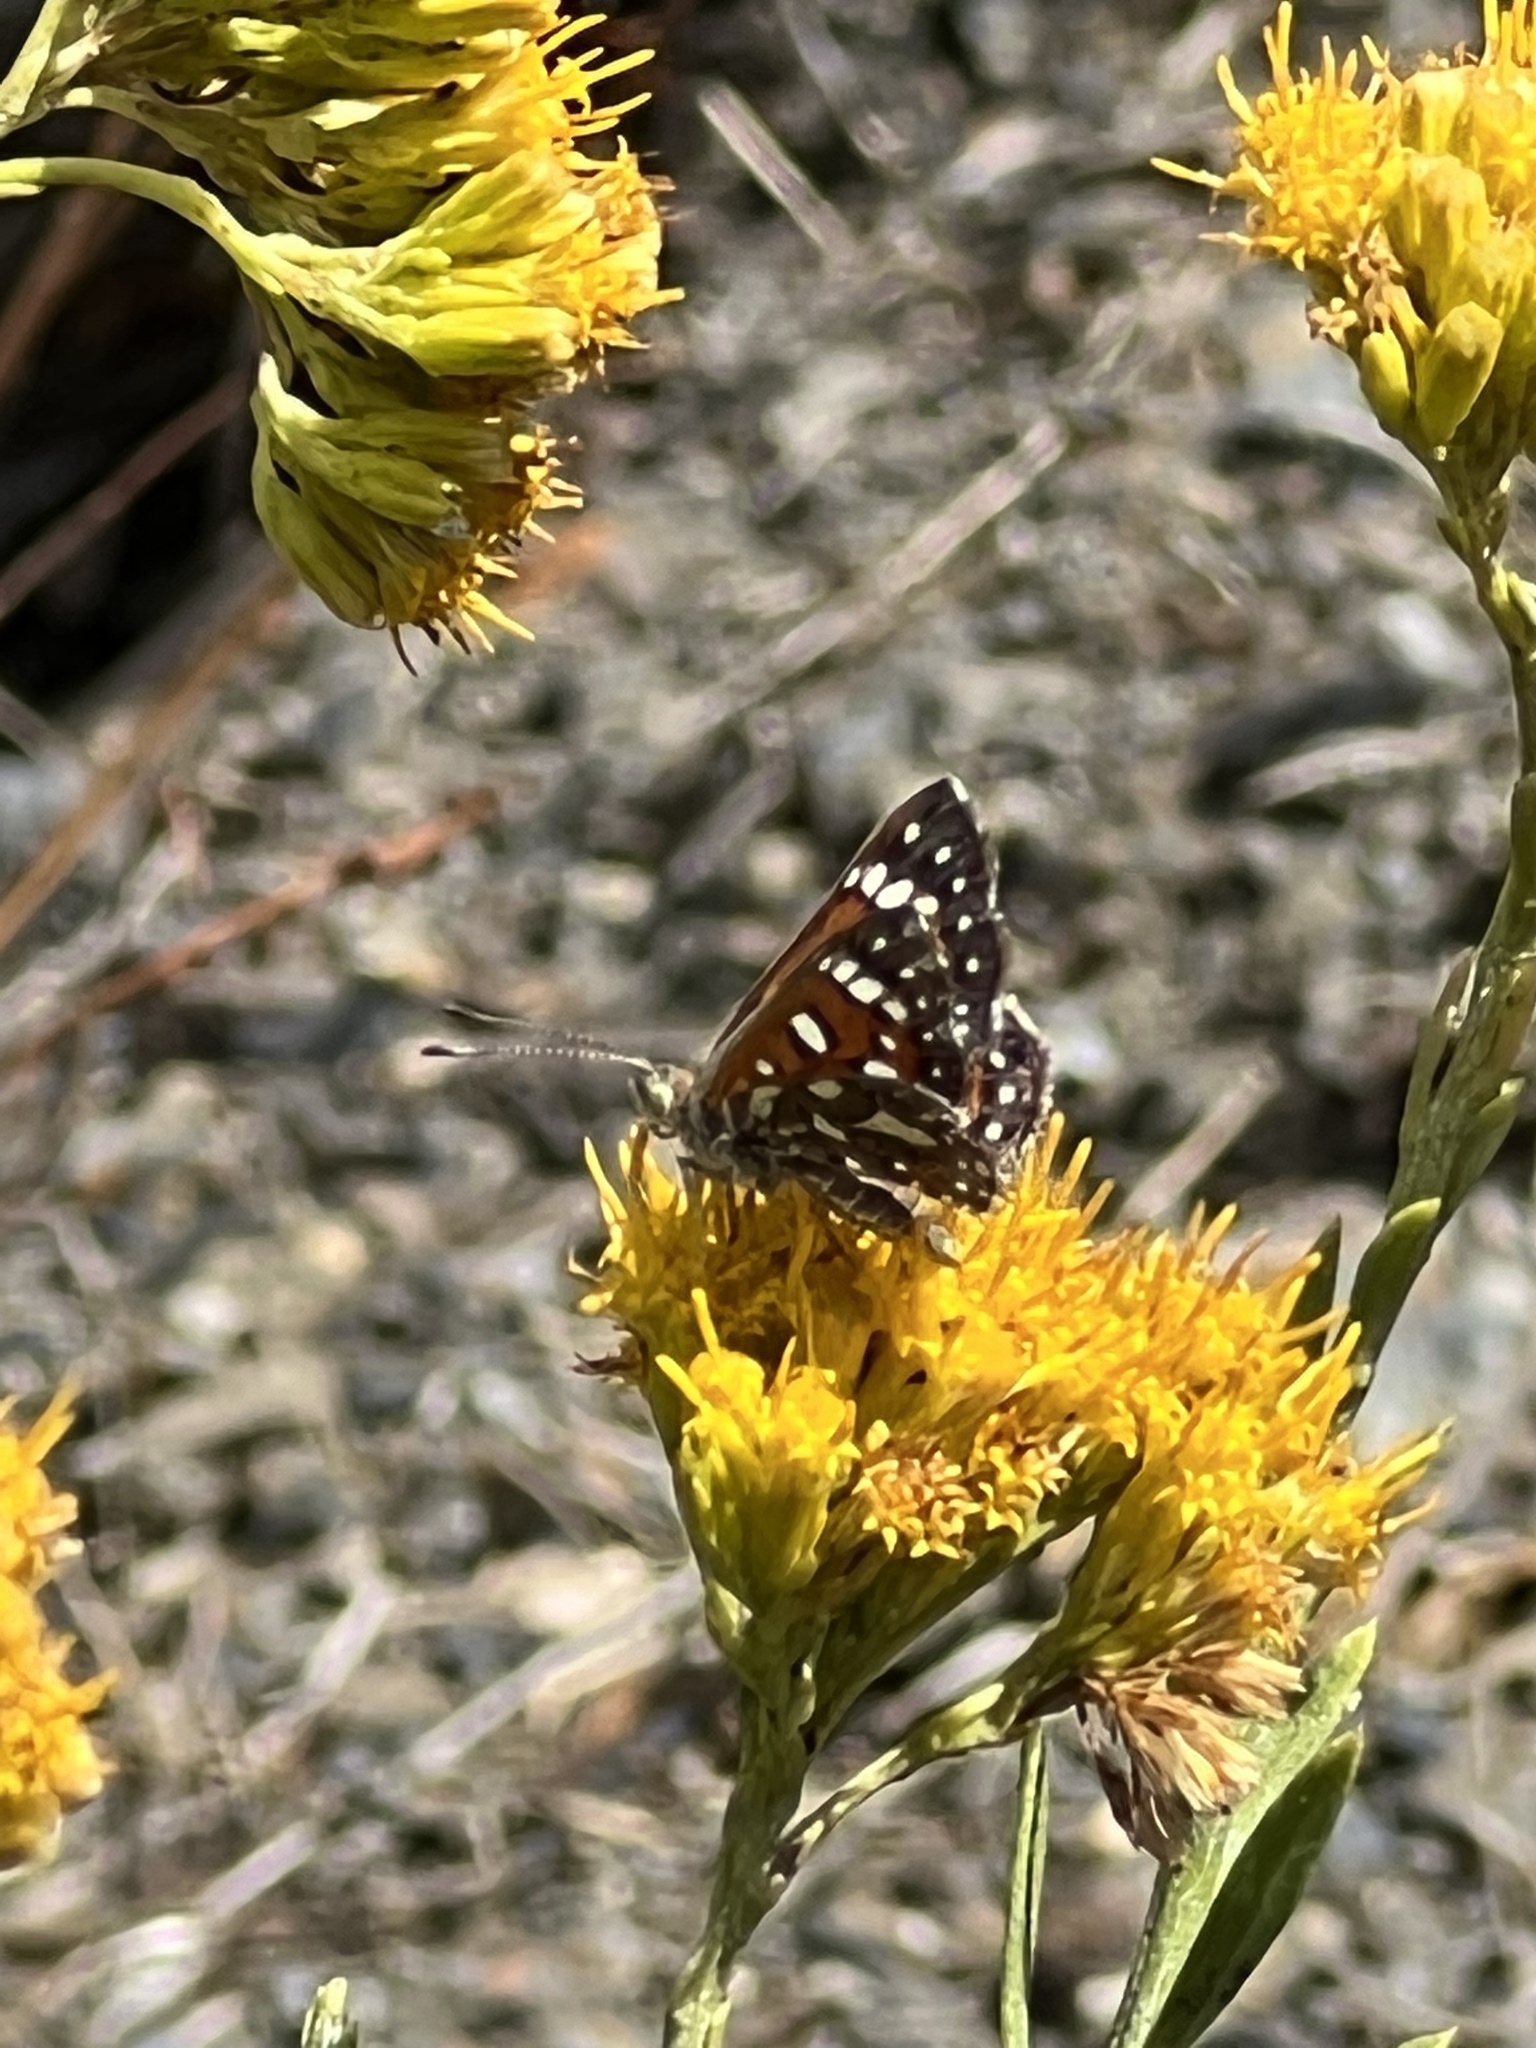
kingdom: Plantae
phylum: Tracheophyta
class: Magnoliopsida
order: Asterales
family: Asteraceae
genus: Ericameria
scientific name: Ericameria parishii
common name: Parish's goldenbush
